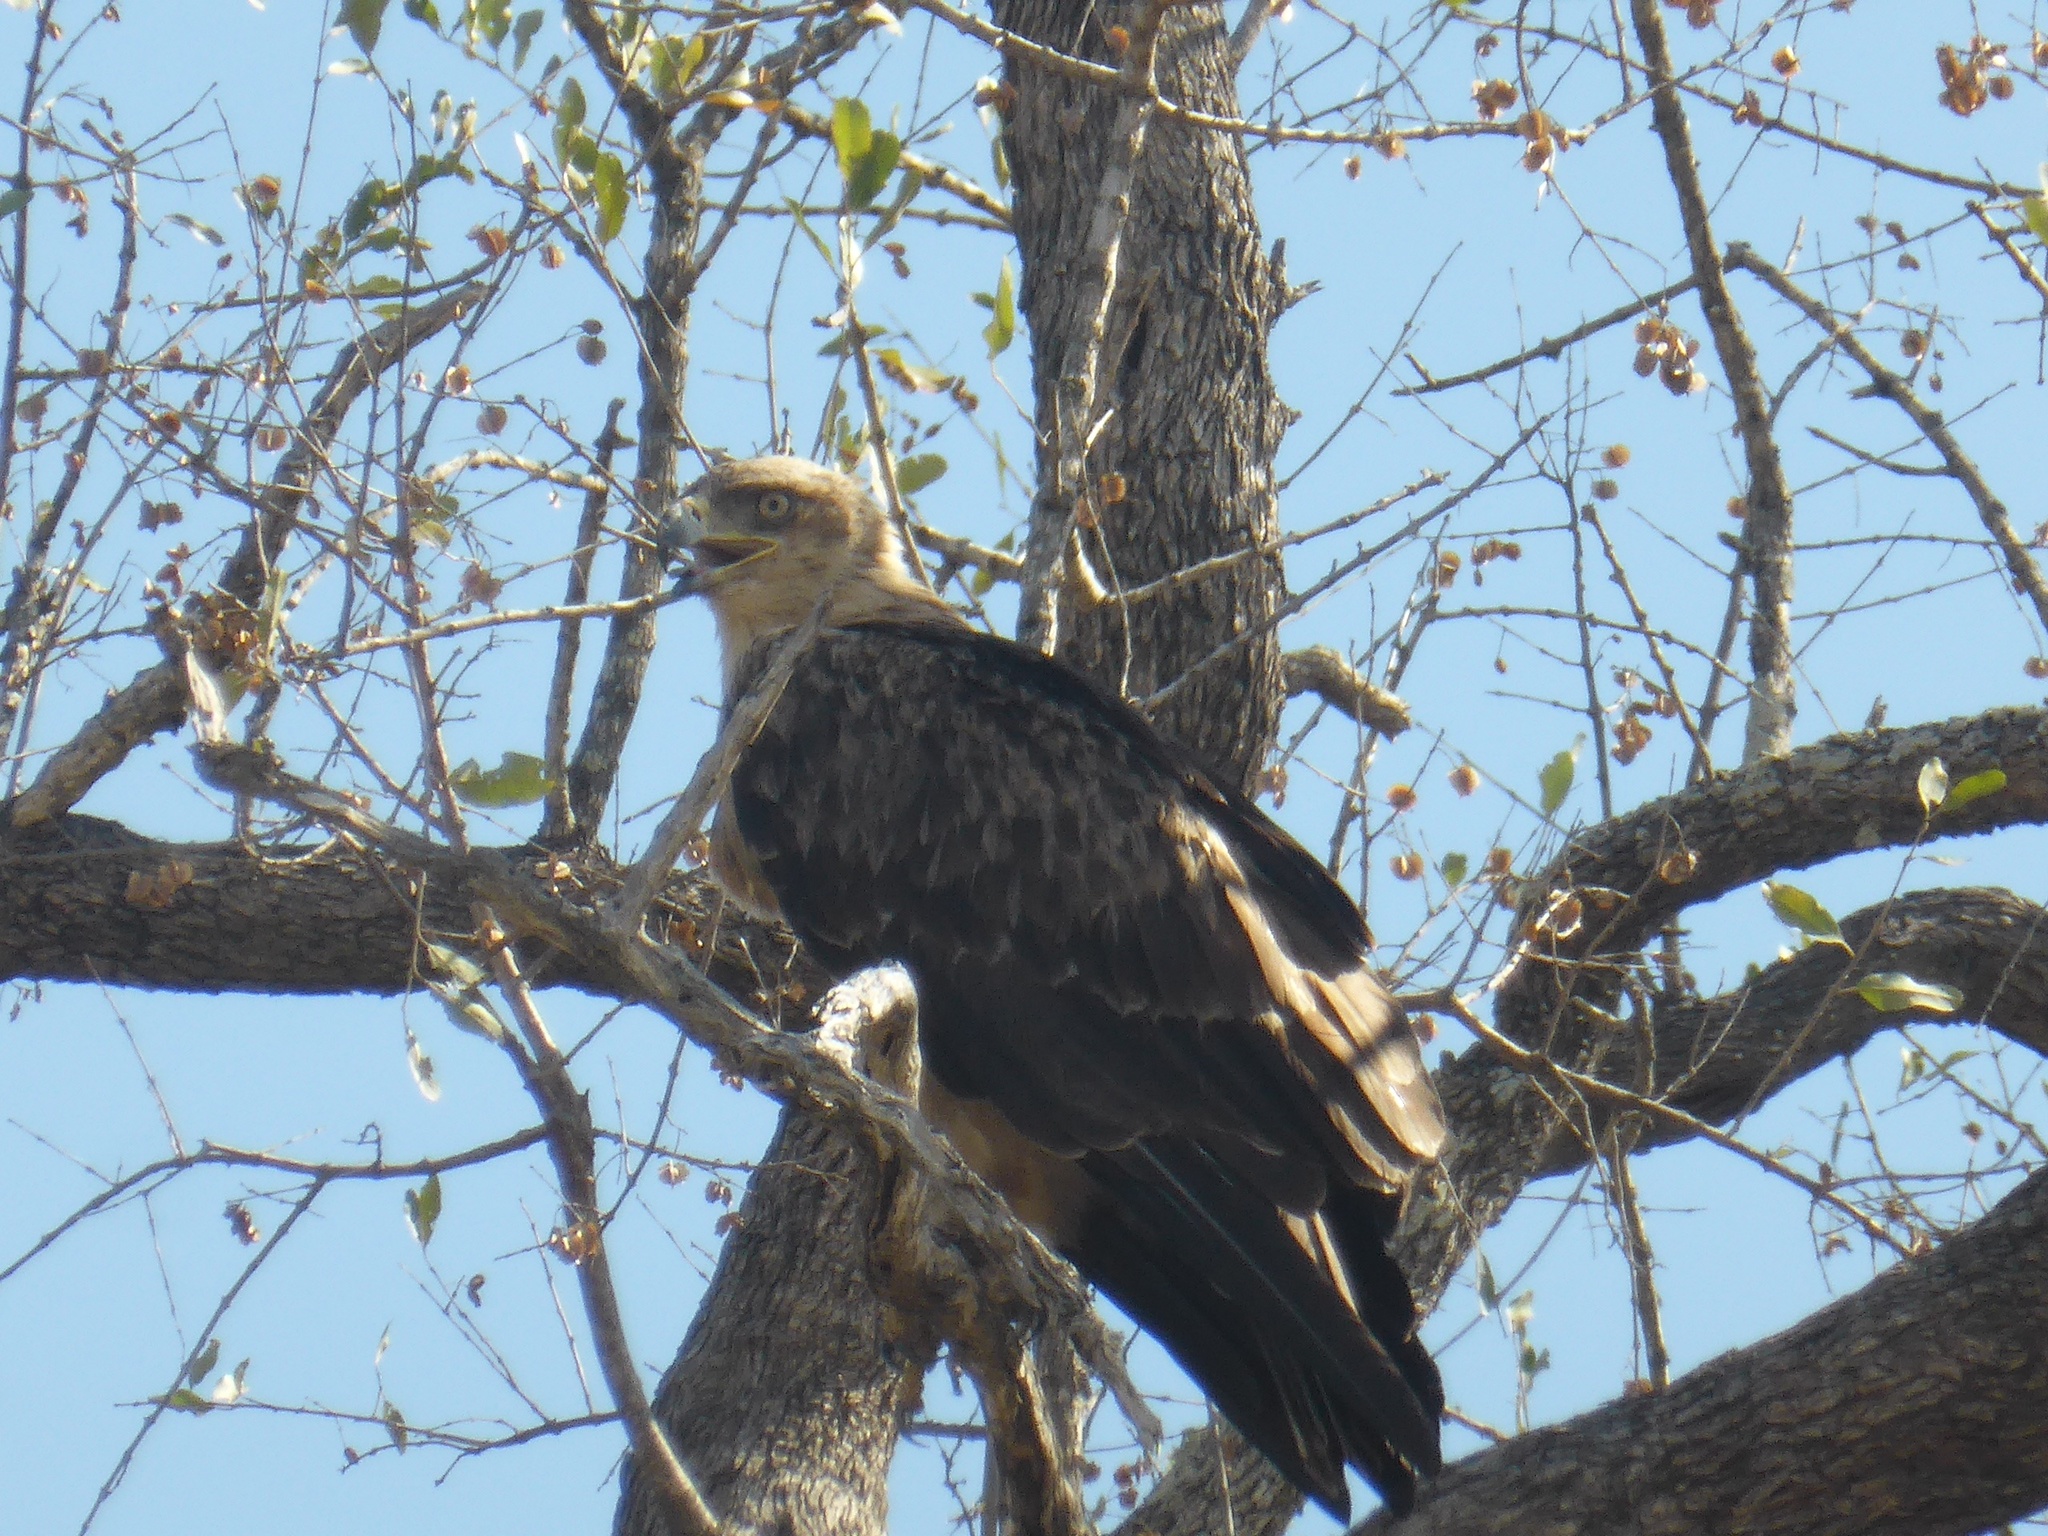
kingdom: Animalia
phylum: Chordata
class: Aves
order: Accipitriformes
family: Accipitridae
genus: Aquila
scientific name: Aquila rapax
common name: Tawny eagle
